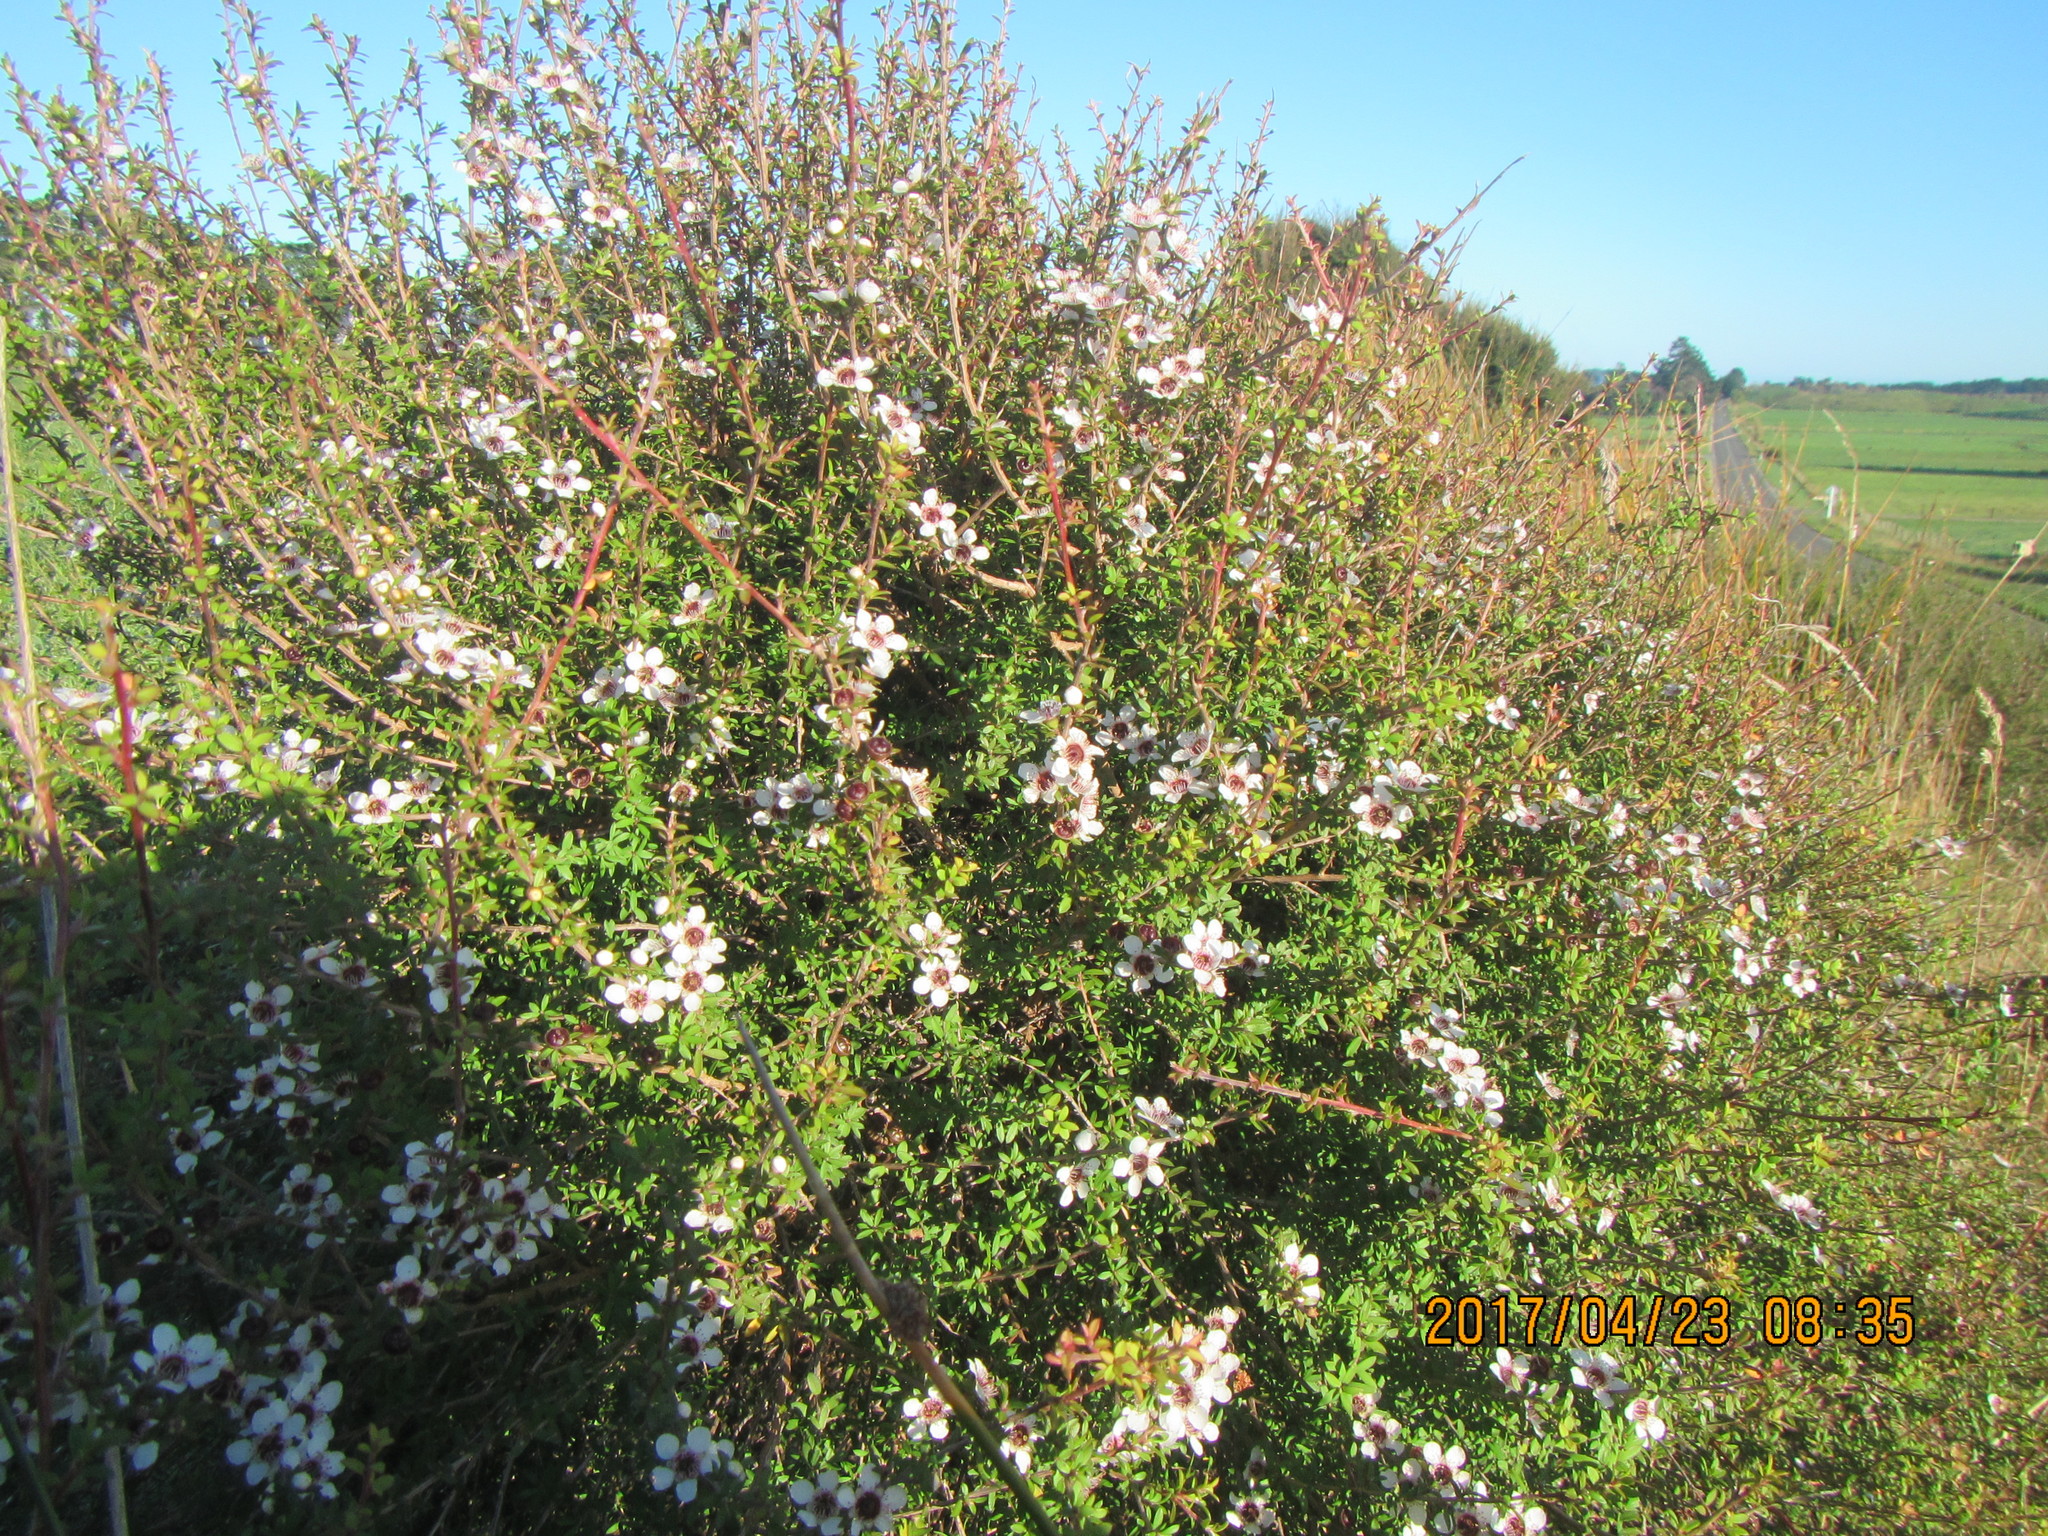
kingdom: Plantae
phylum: Tracheophyta
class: Magnoliopsida
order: Myrtales
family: Myrtaceae
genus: Leptospermum
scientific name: Leptospermum scoparium
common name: Broom tea-tree
